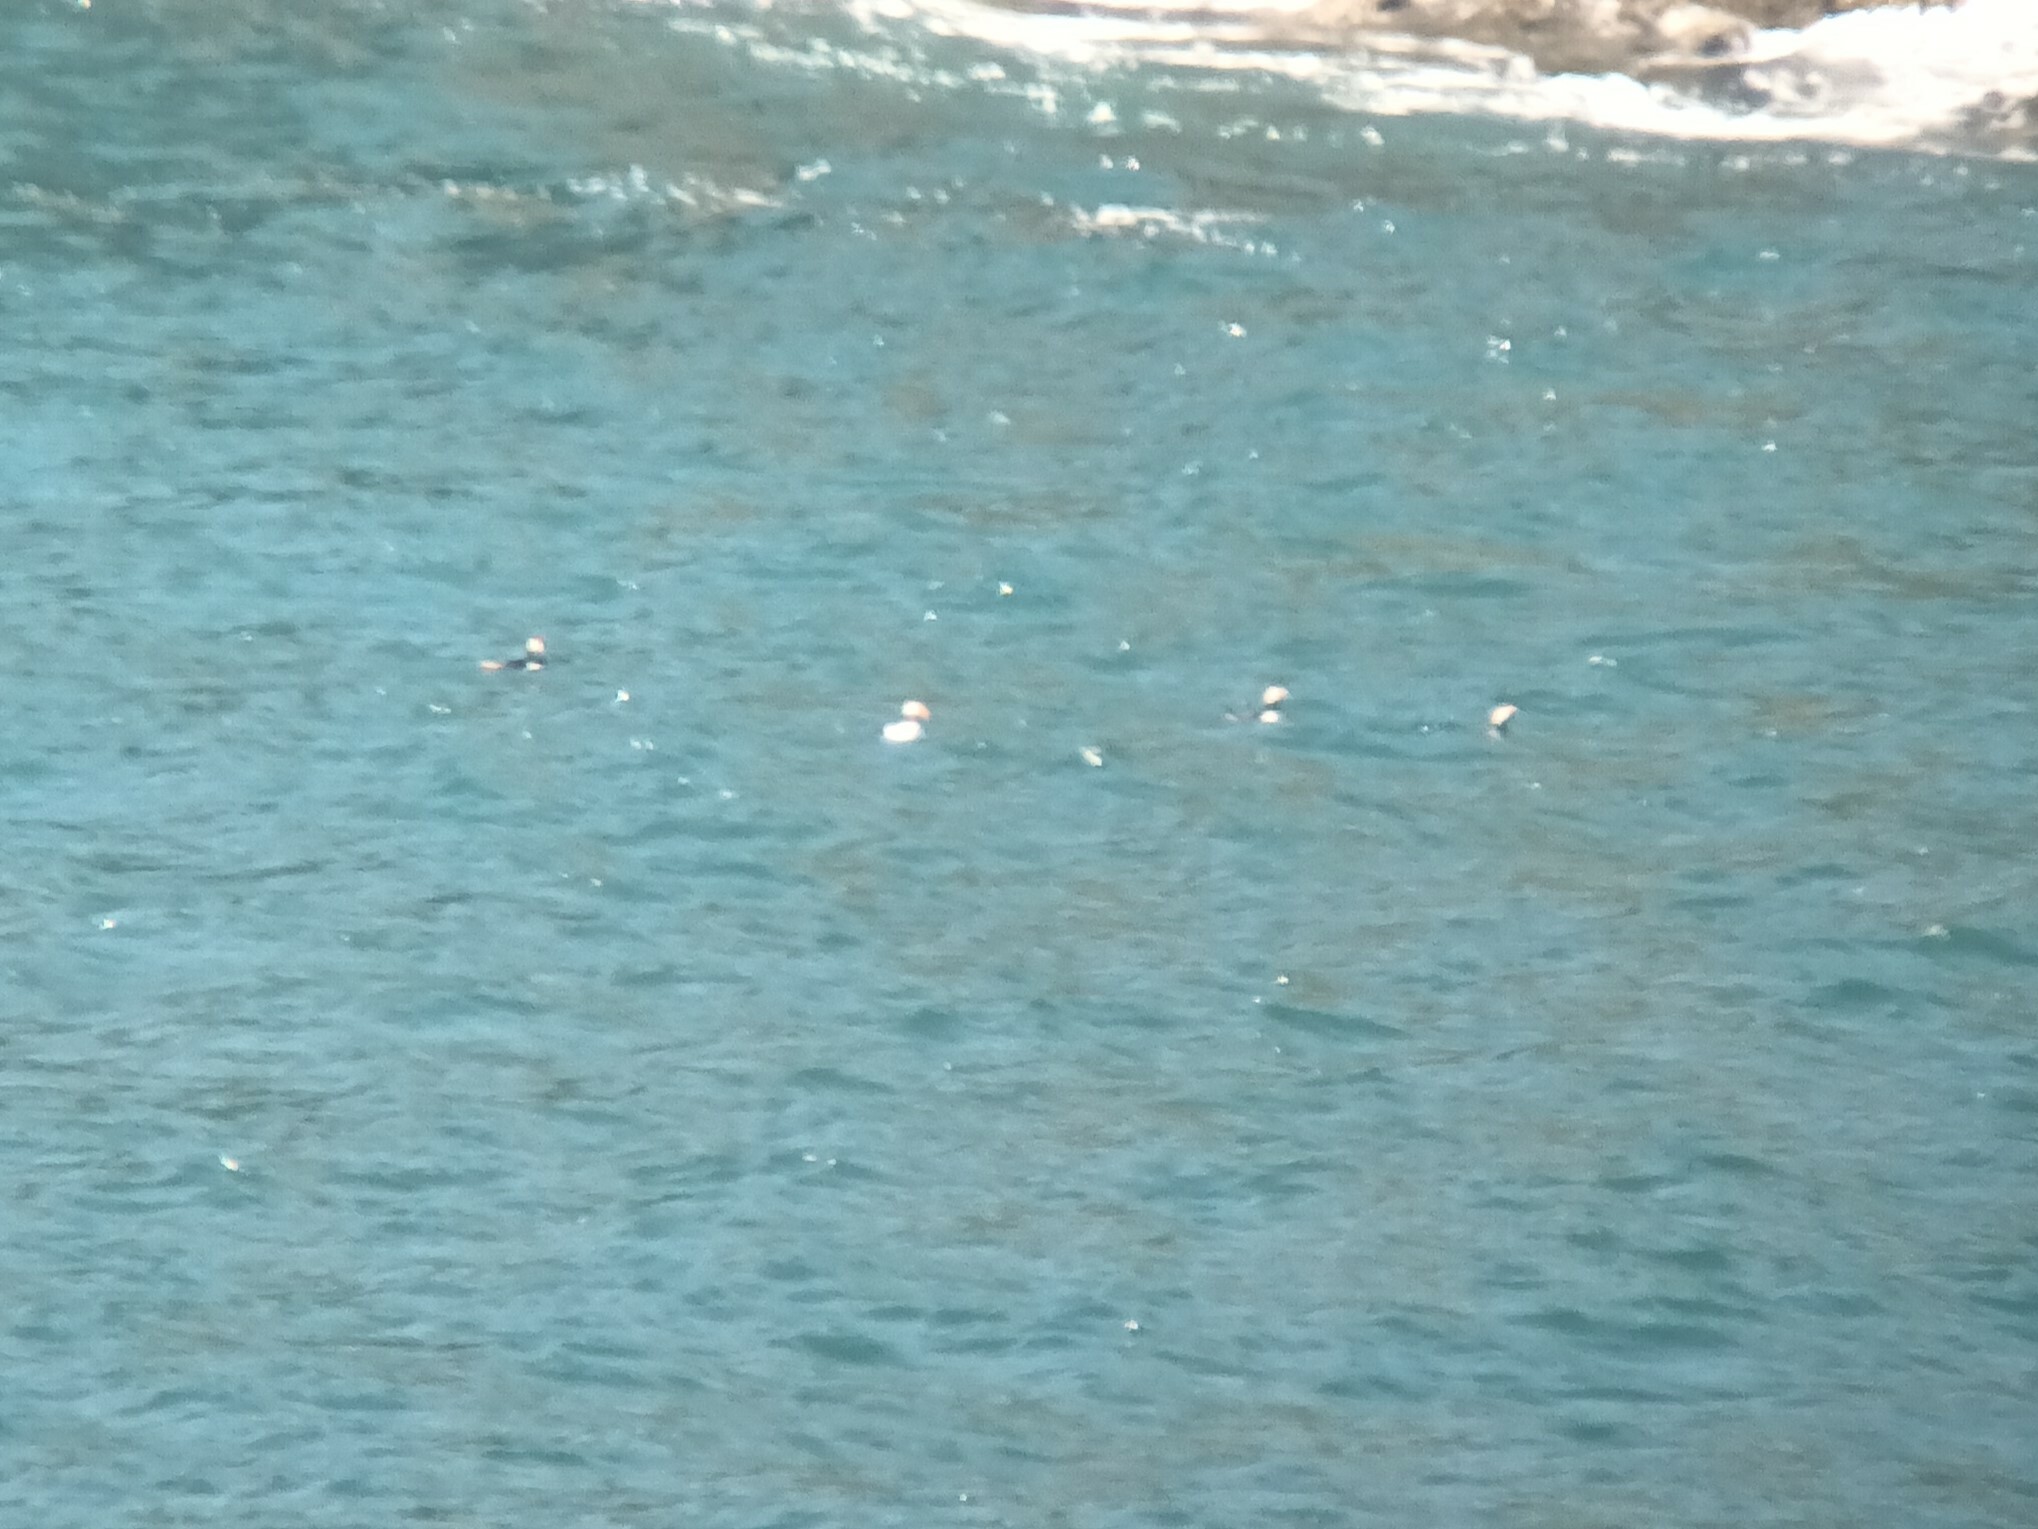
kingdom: Animalia
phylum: Chordata
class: Aves
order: Charadriiformes
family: Alcidae
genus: Fratercula
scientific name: Fratercula arctica
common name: Atlantic puffin
